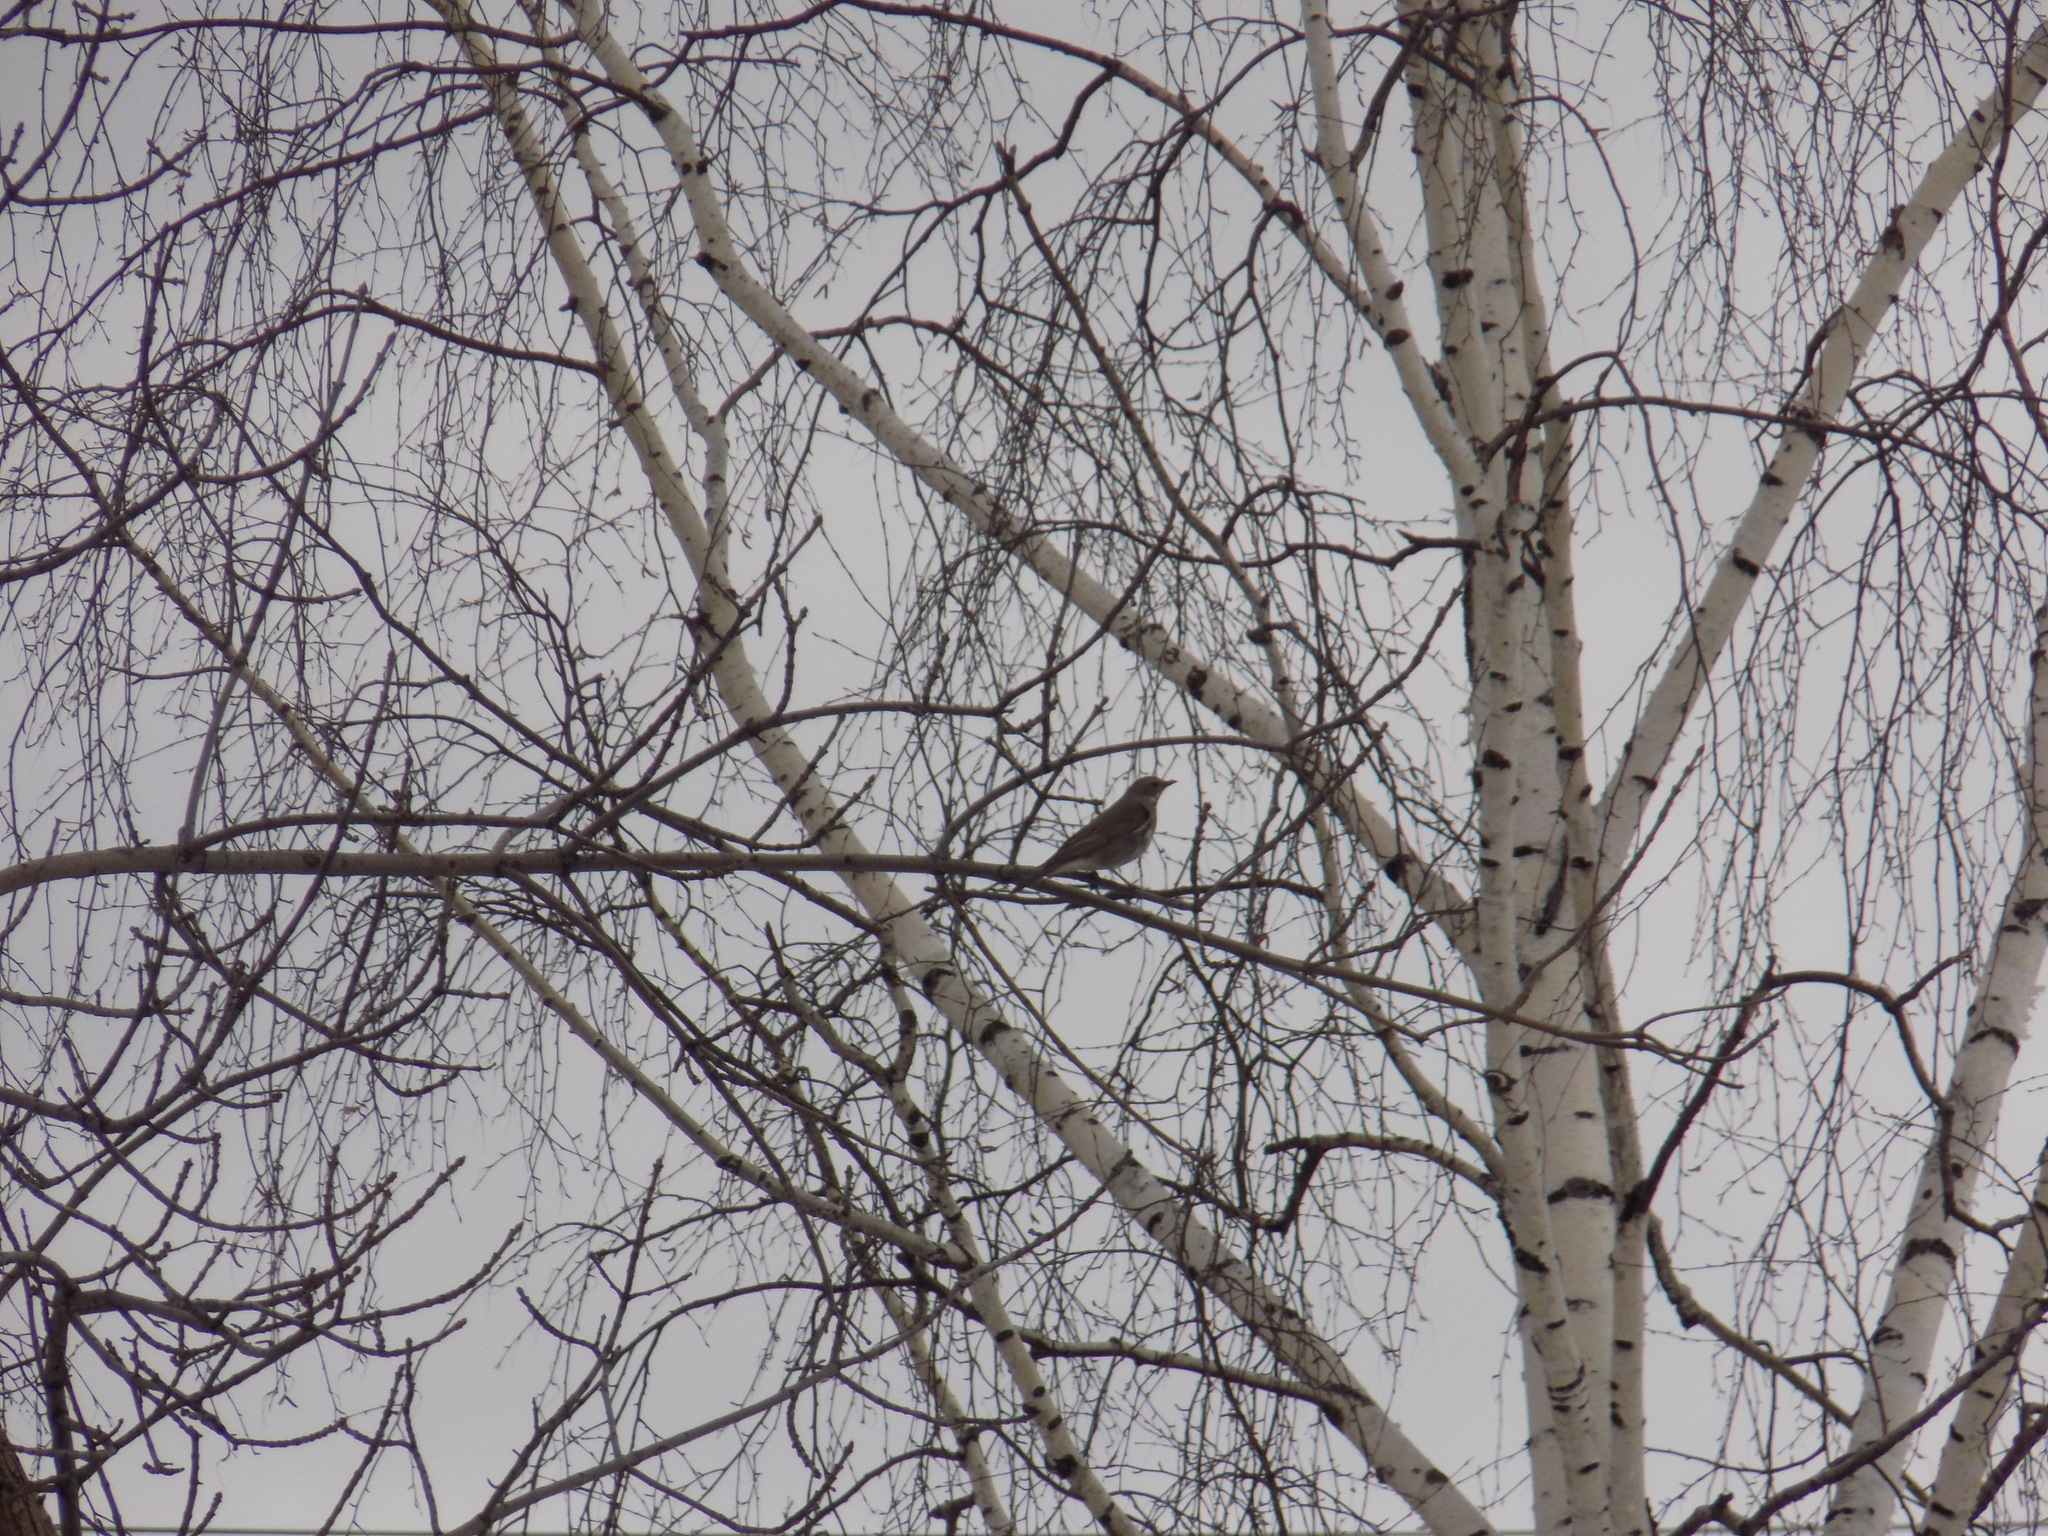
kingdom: Animalia
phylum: Chordata
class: Aves
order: Passeriformes
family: Turdidae
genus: Turdus
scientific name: Turdus atrogularis
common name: Black-throated thrush
